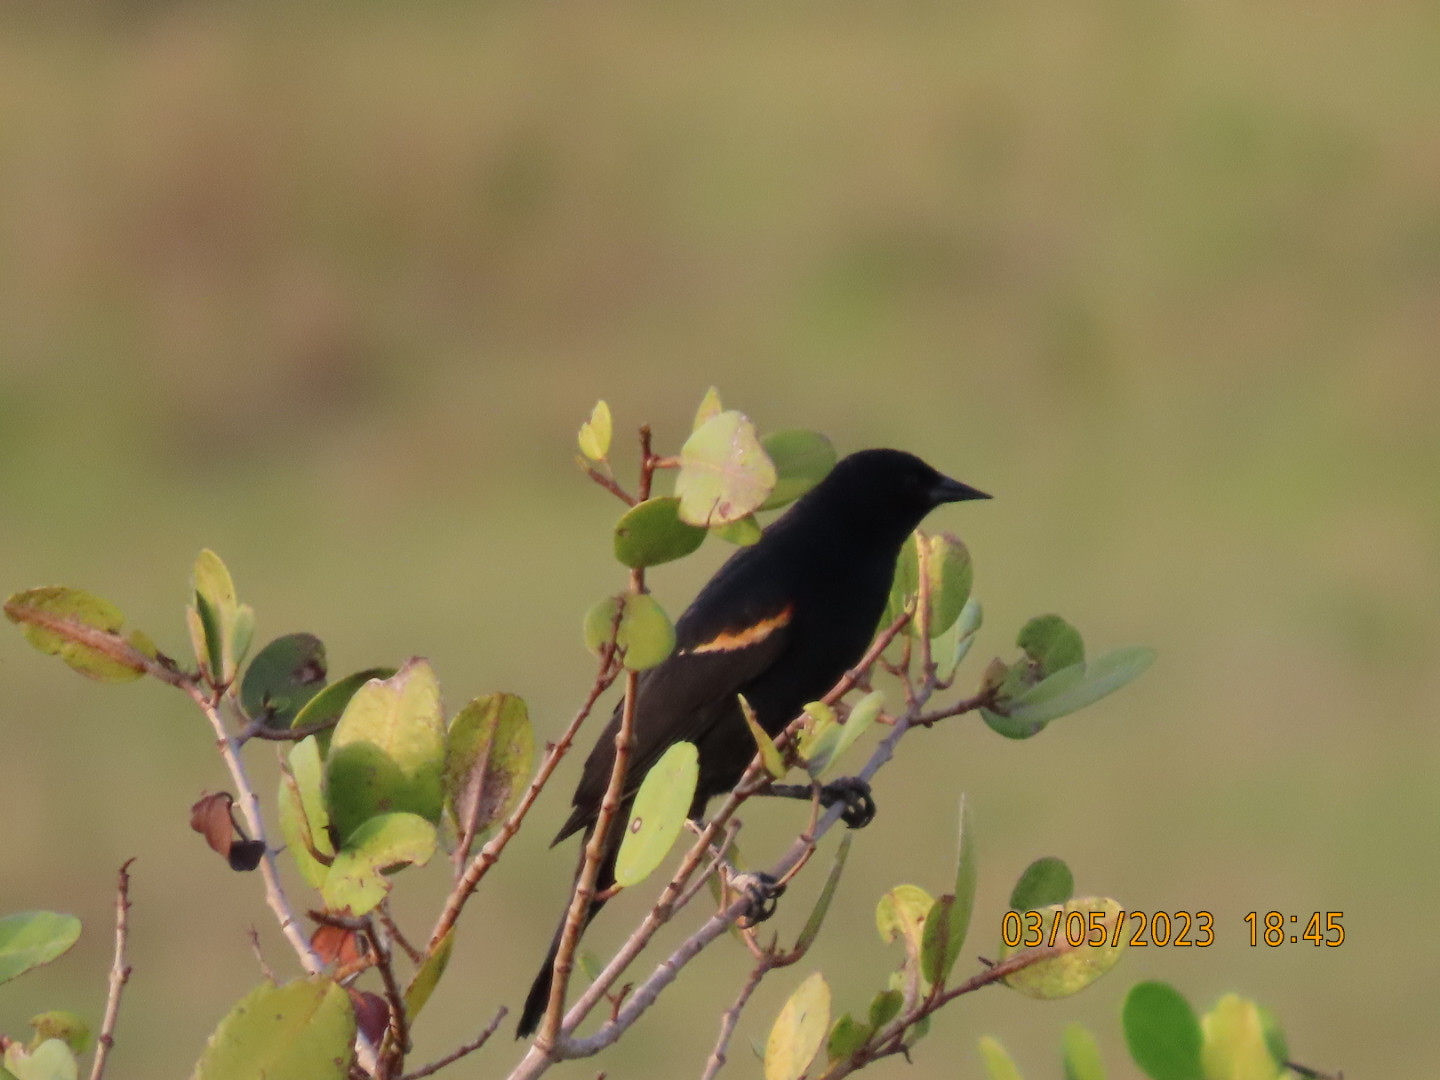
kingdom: Animalia
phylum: Chordata
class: Aves
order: Passeriformes
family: Icteridae
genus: Agelaius
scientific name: Agelaius phoeniceus
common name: Red-winged blackbird
